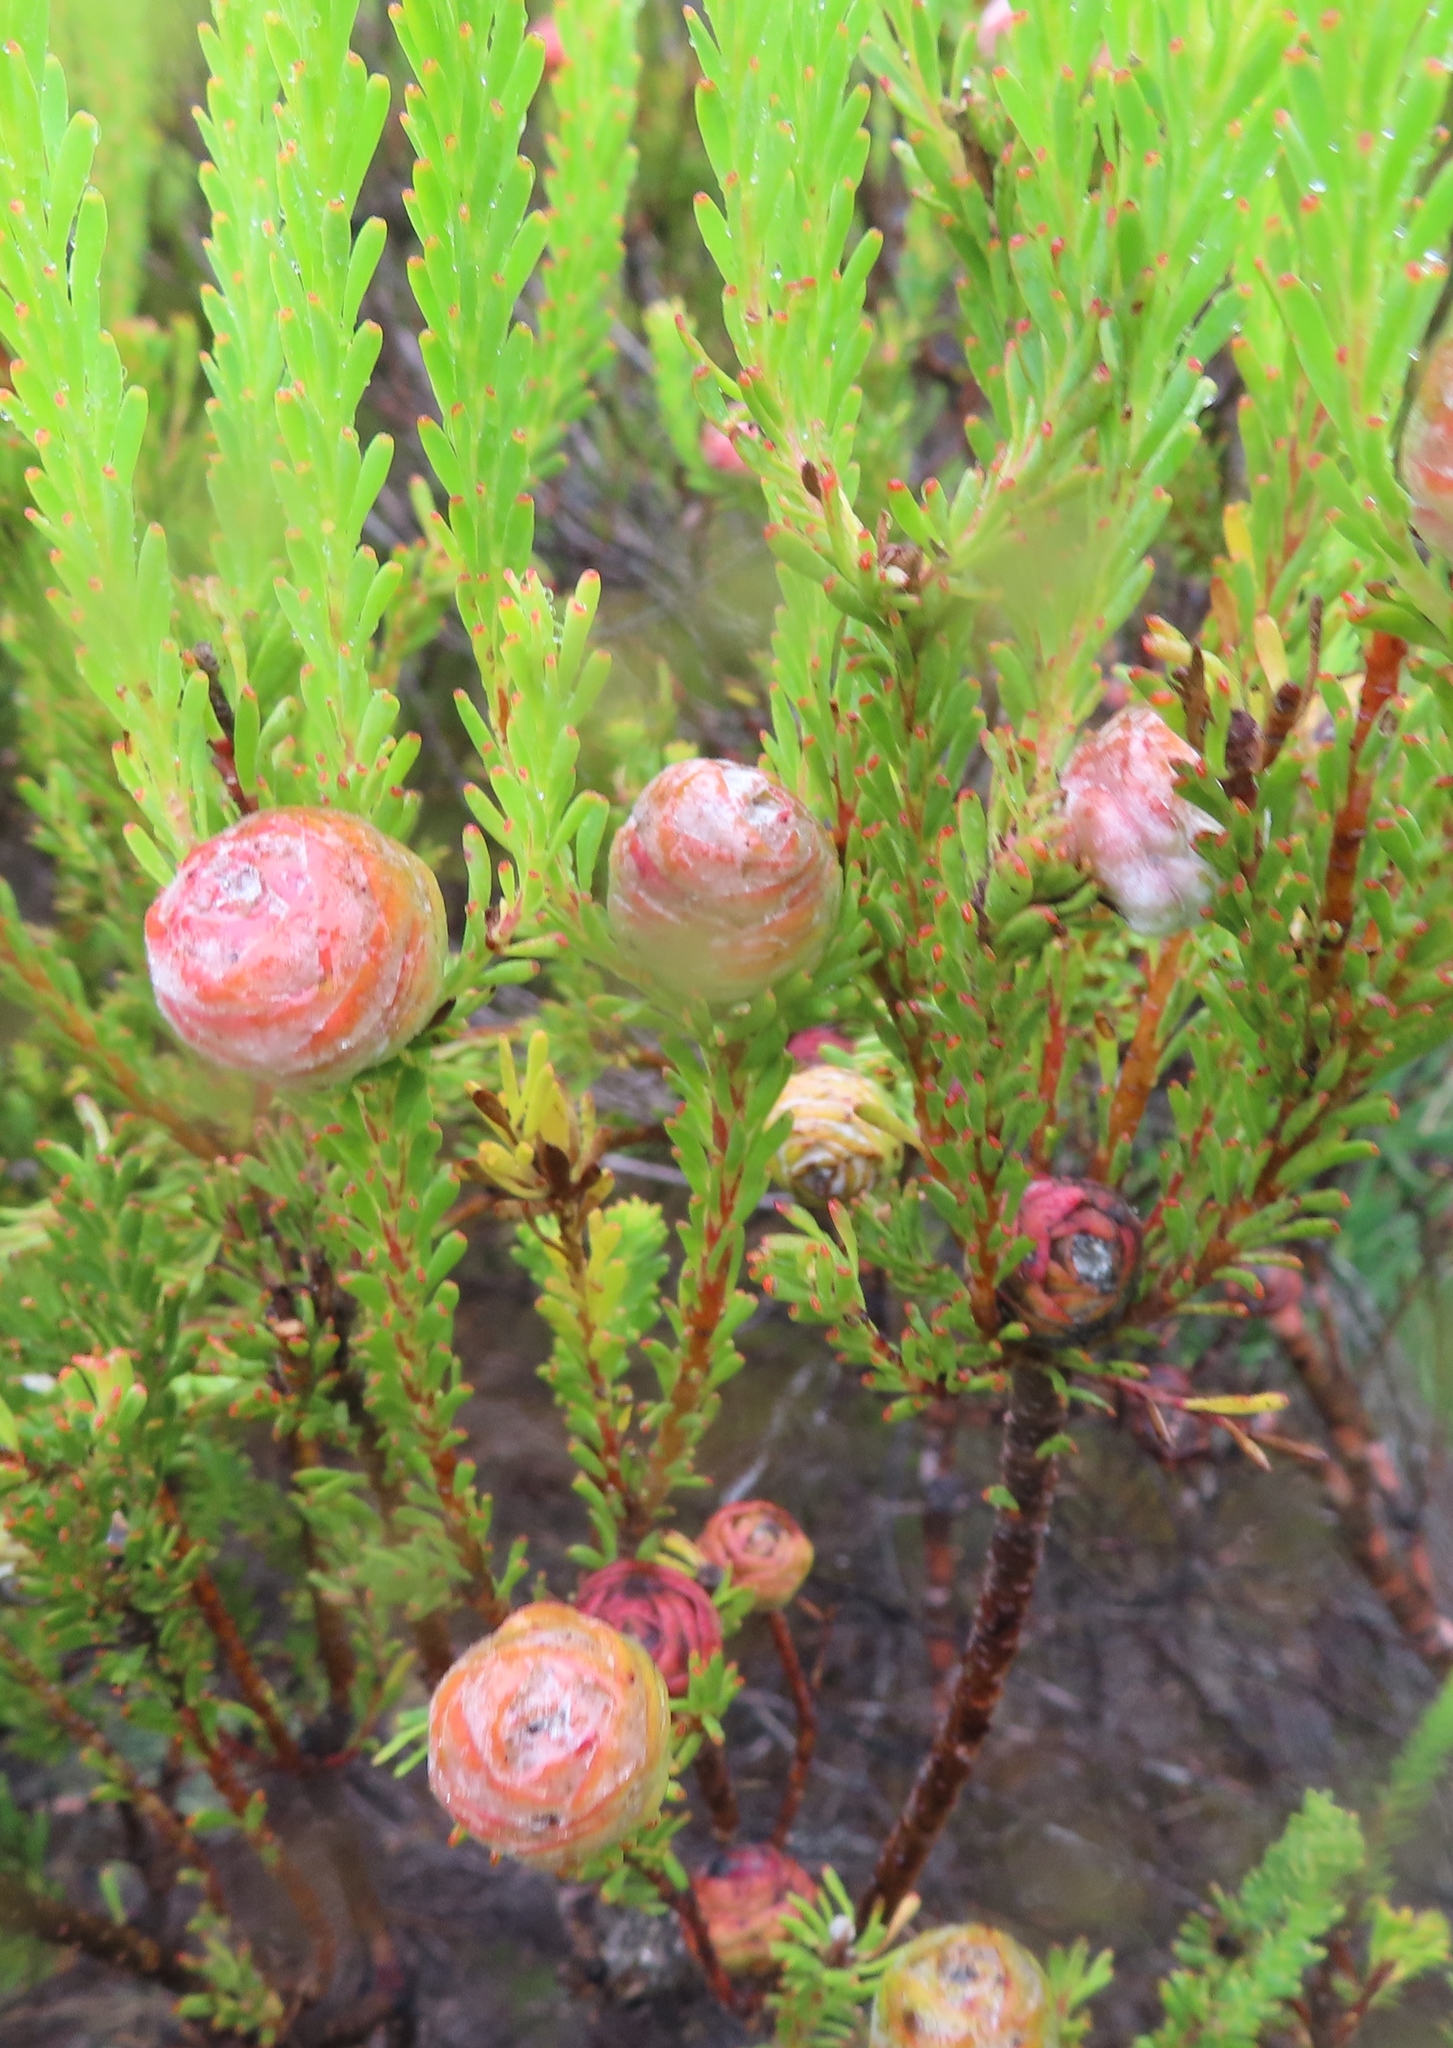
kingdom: Plantae
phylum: Tracheophyta
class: Magnoliopsida
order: Proteales
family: Proteaceae
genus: Leucadendron
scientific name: Leucadendron linifolium
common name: Line-leaf conebush
